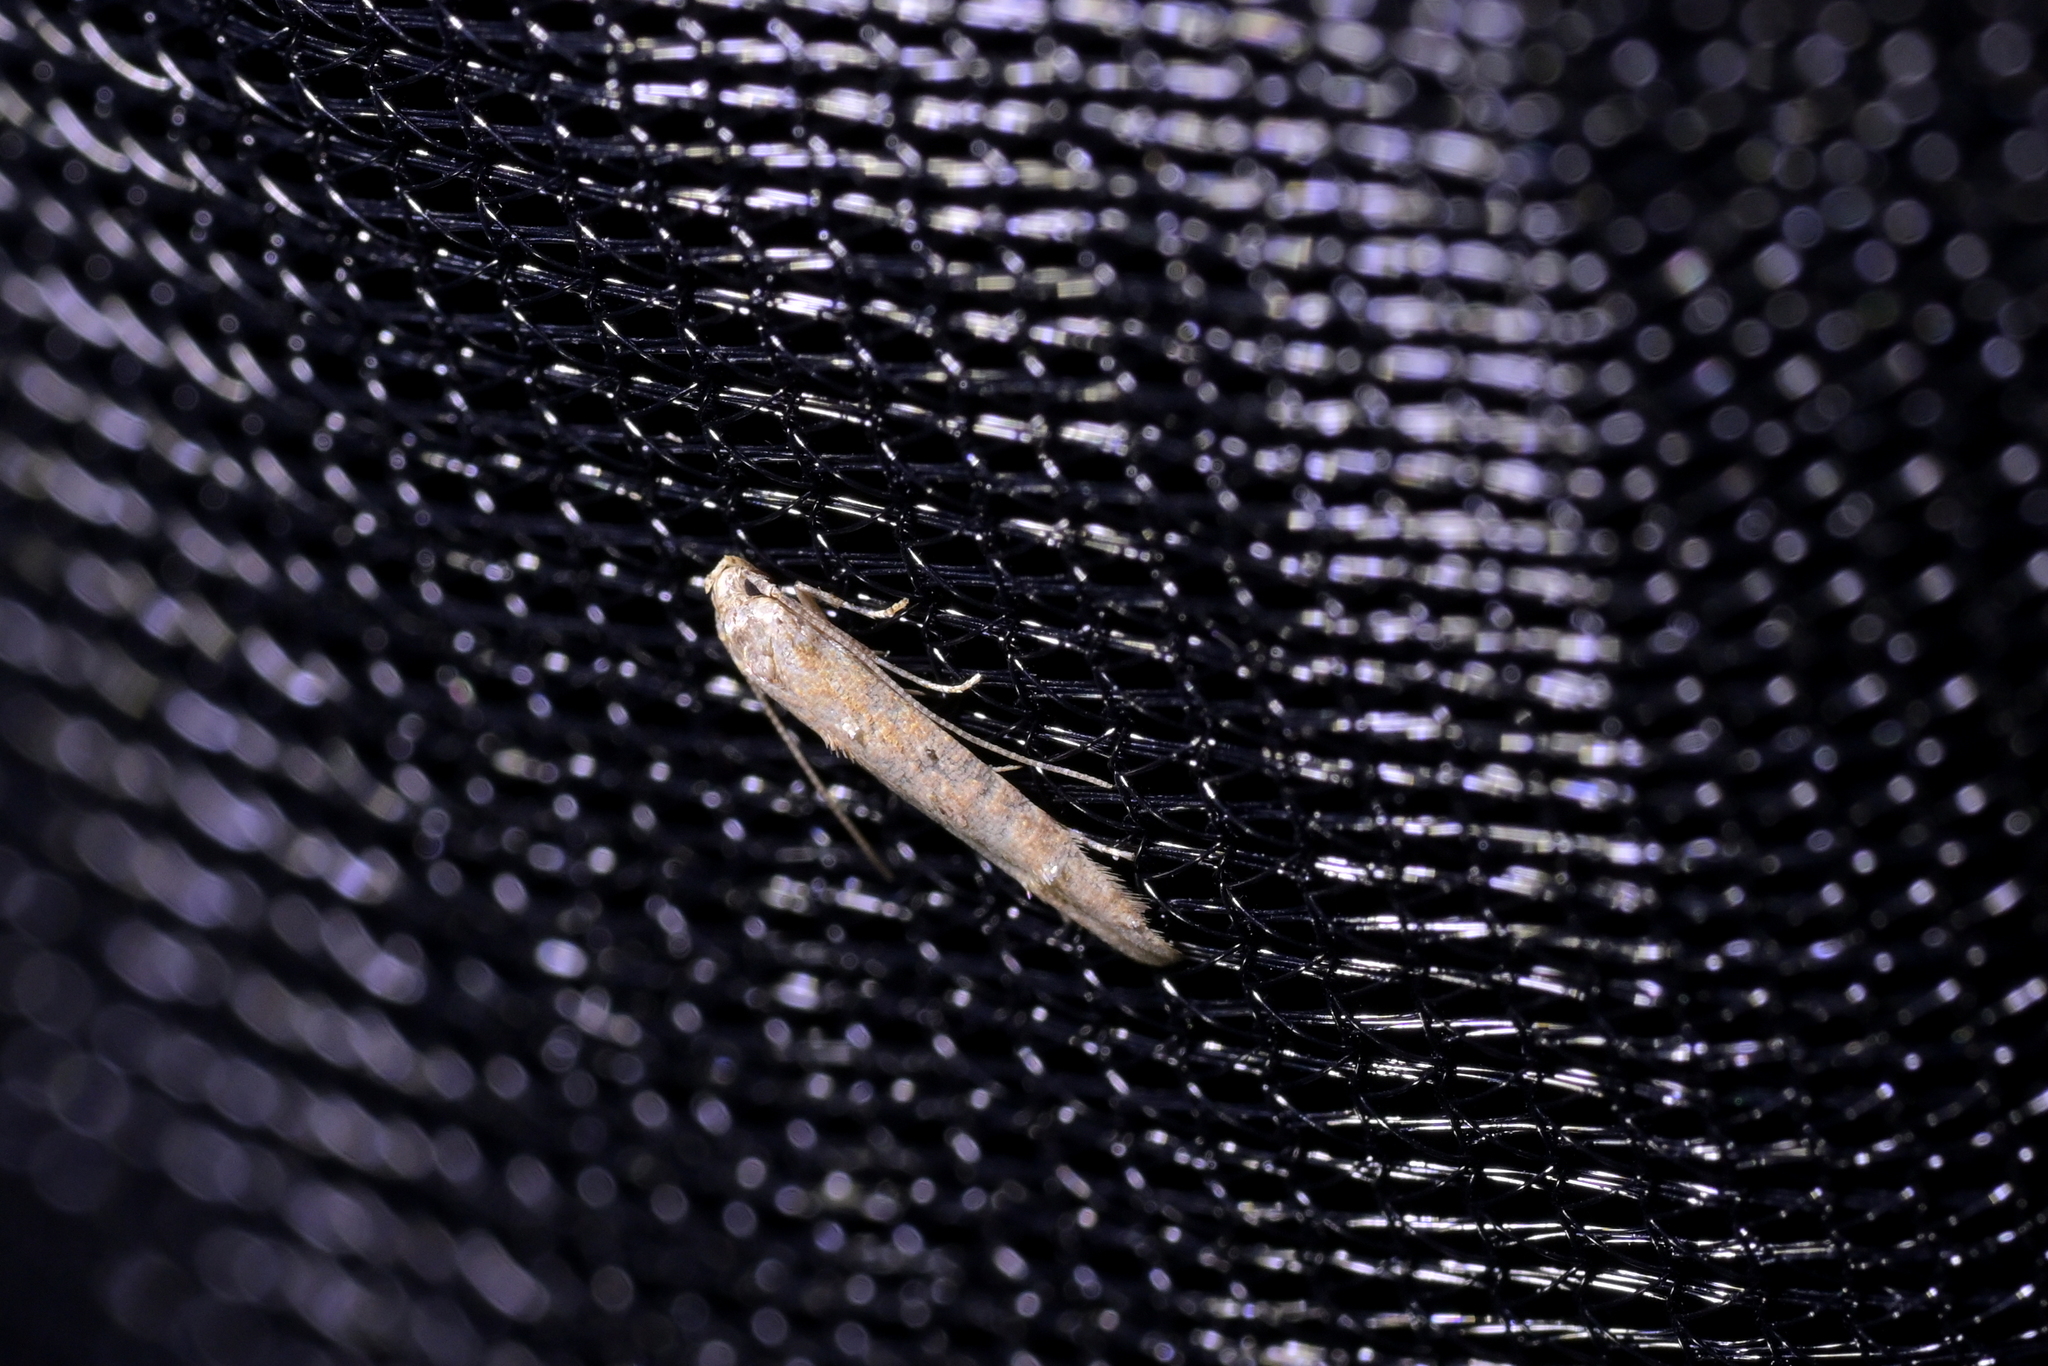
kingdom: Animalia
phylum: Arthropoda
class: Insecta
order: Lepidoptera
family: Elachistidae
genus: Microcolona
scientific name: Microcolona limodes
